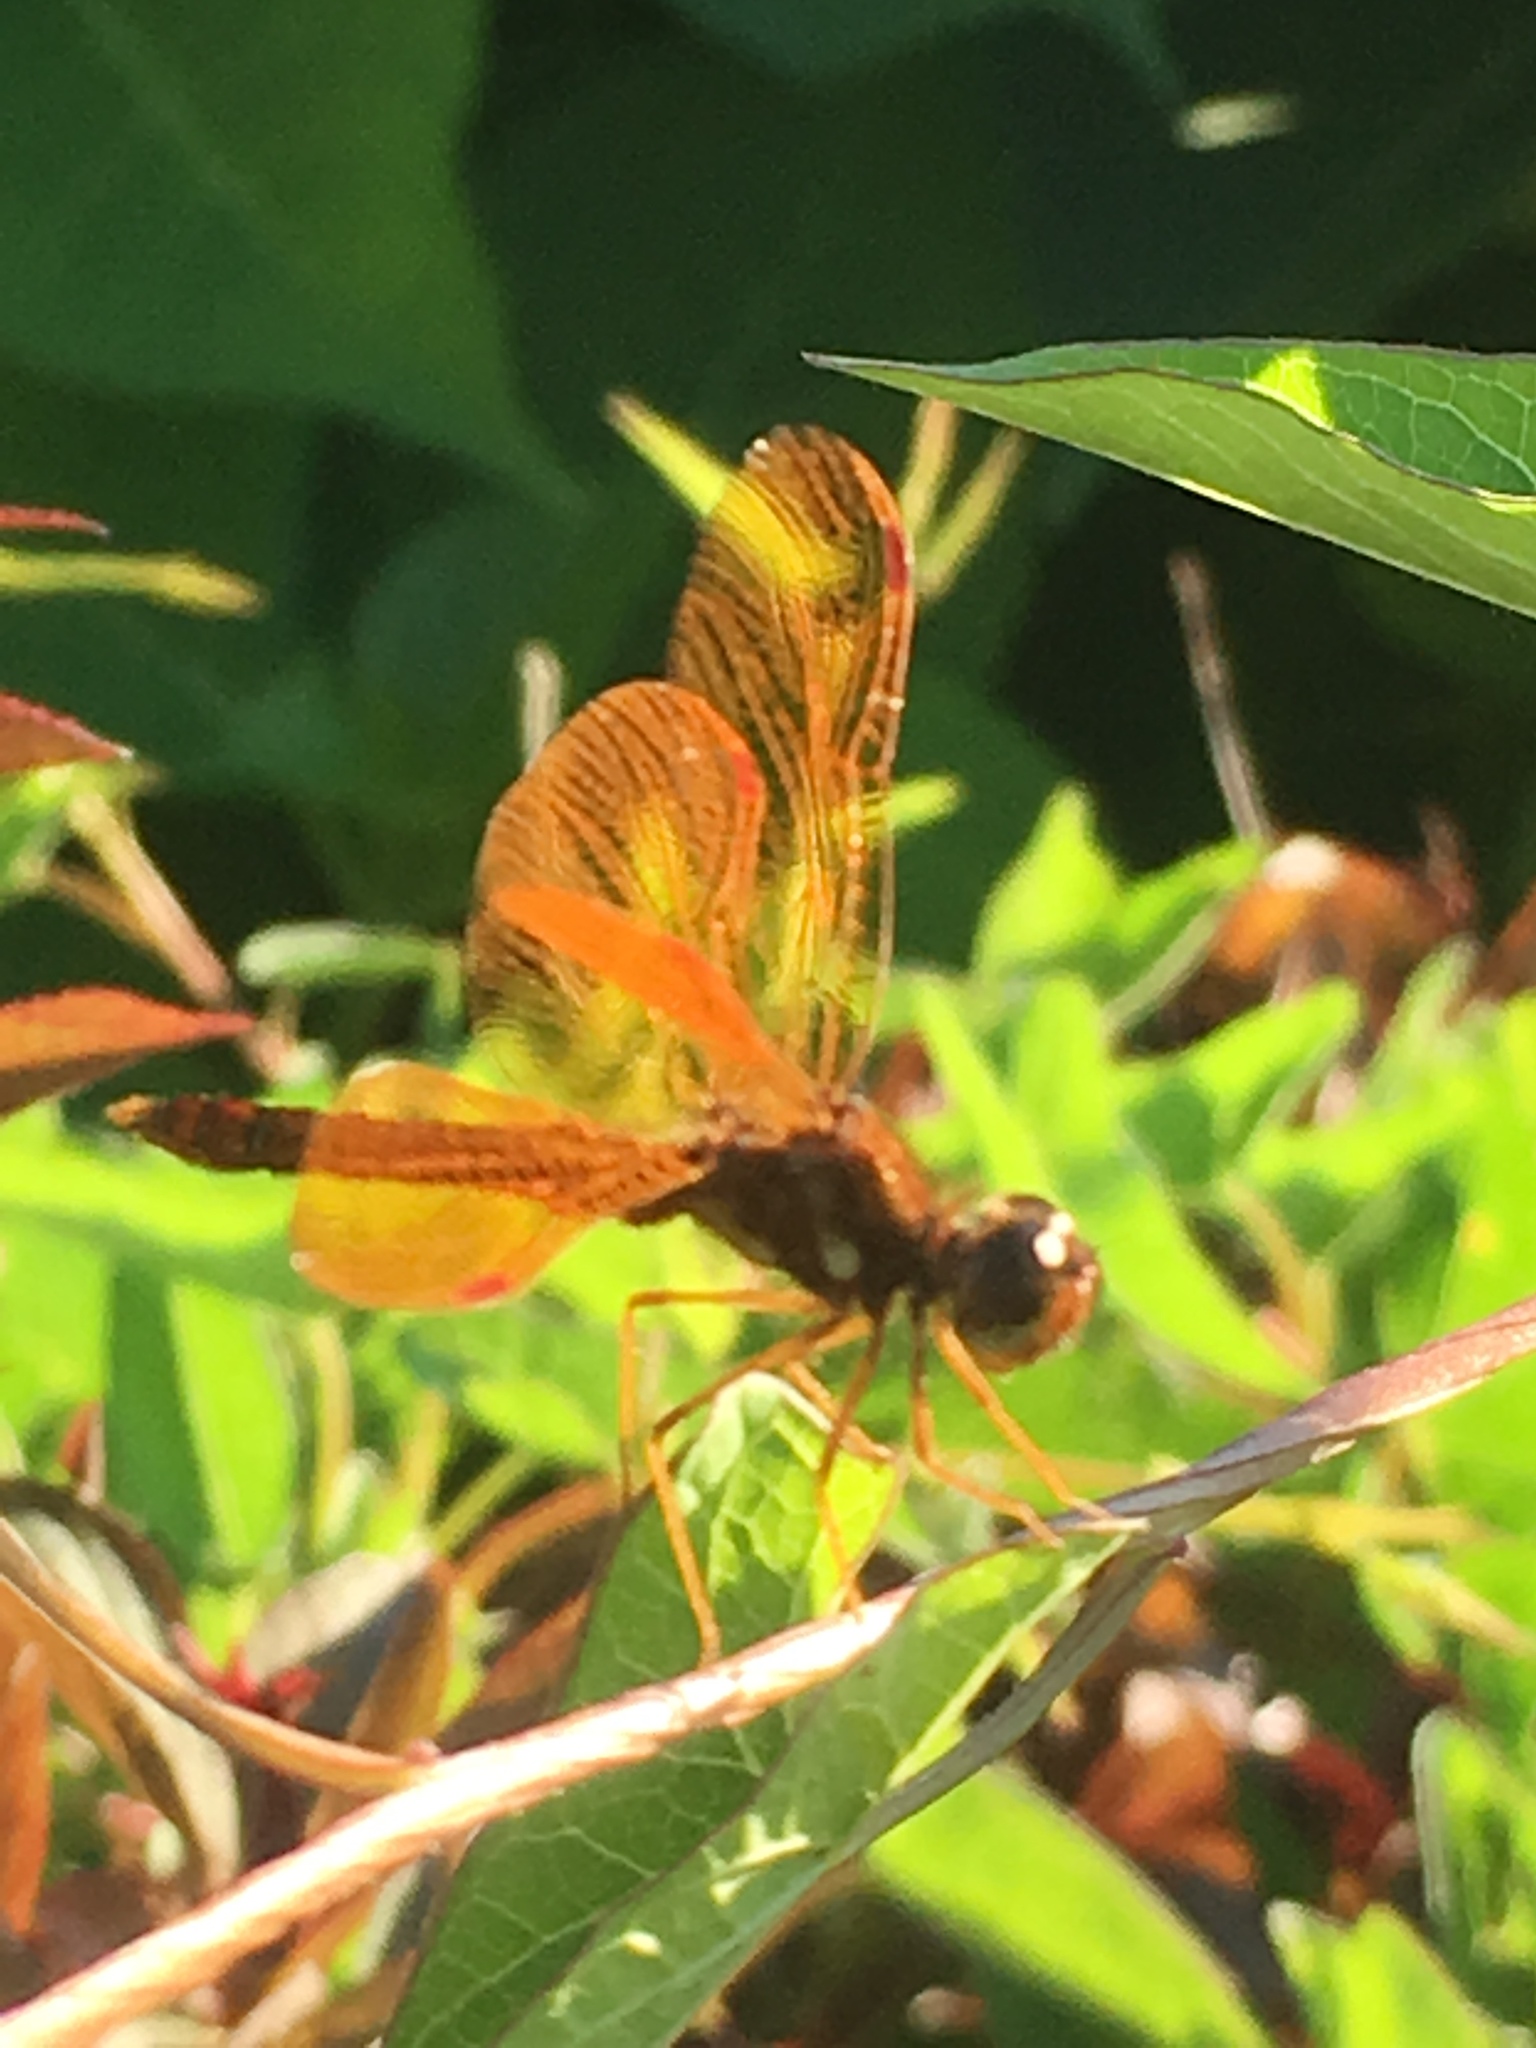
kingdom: Animalia
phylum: Arthropoda
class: Insecta
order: Odonata
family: Libellulidae
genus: Perithemis
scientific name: Perithemis tenera
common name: Eastern amberwing
